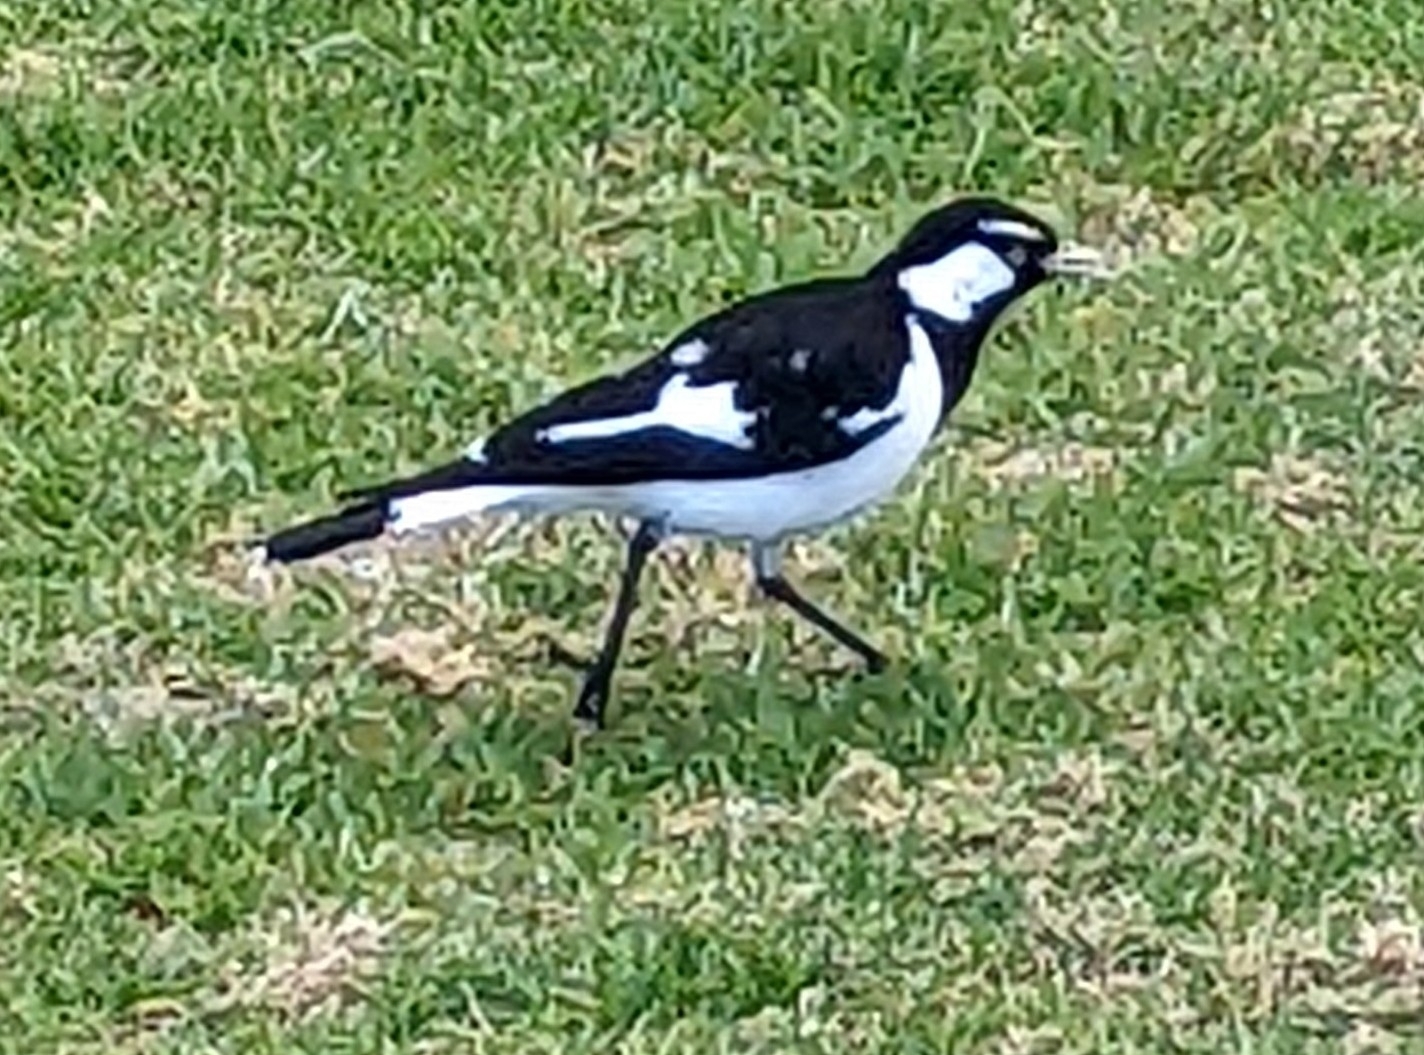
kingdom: Animalia
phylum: Chordata
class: Aves
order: Passeriformes
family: Monarchidae
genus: Grallina
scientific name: Grallina cyanoleuca
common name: Magpie-lark
